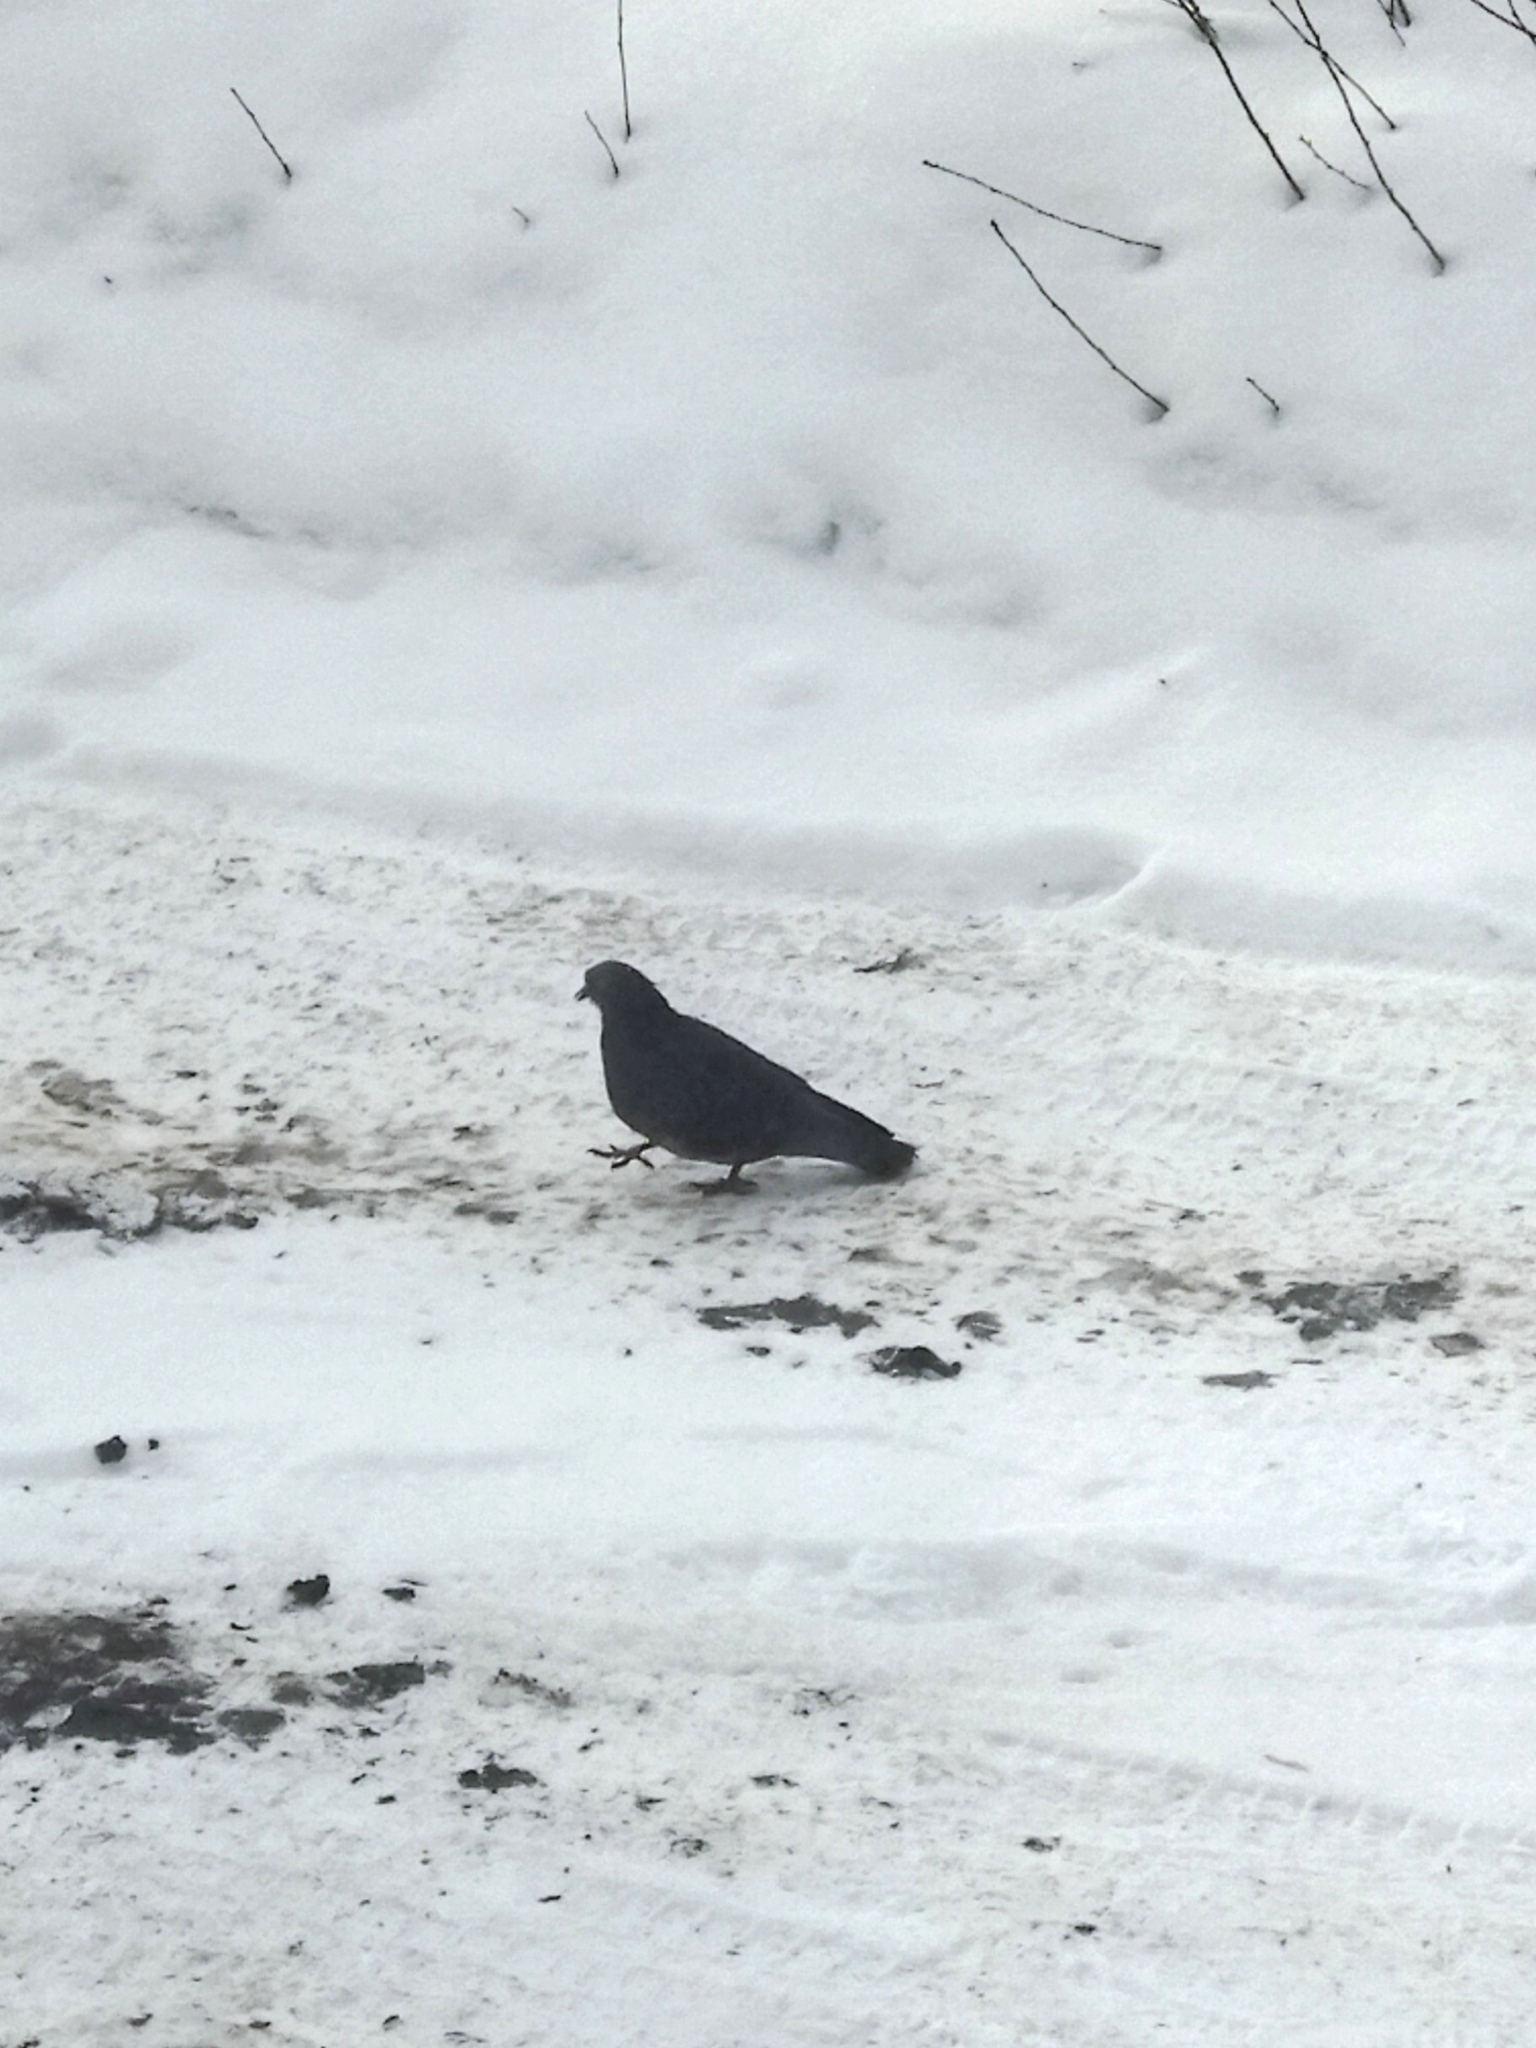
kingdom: Animalia
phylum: Chordata
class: Aves
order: Columbiformes
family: Columbidae
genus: Columba
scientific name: Columba livia
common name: Rock pigeon
